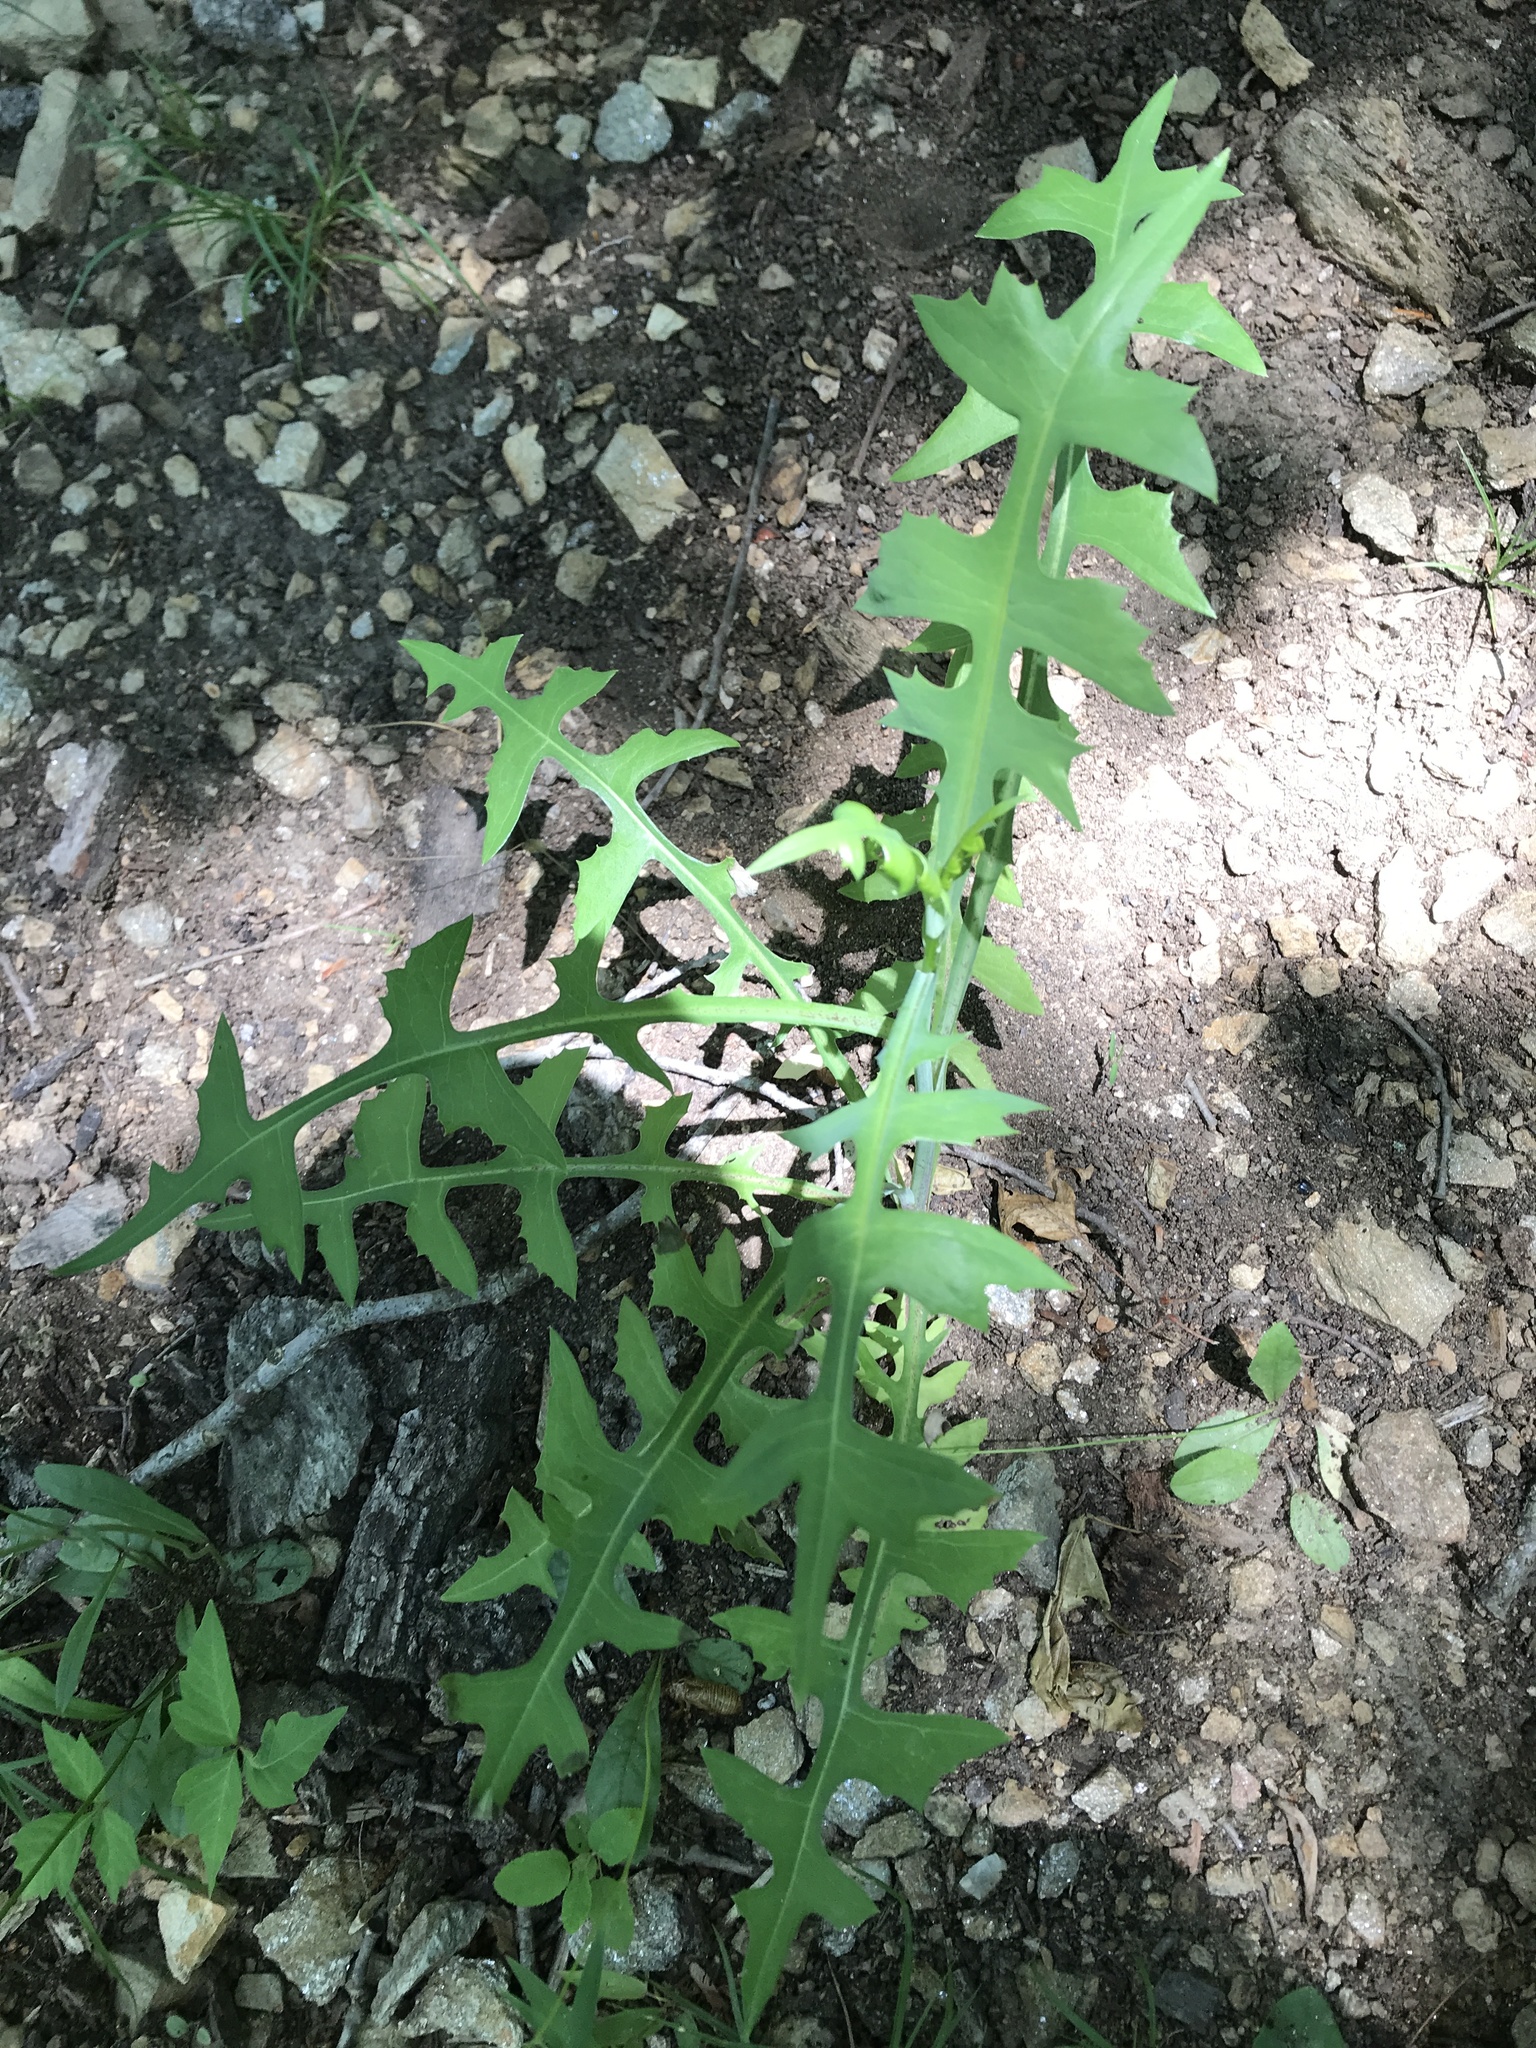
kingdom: Plantae
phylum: Tracheophyta
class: Magnoliopsida
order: Asterales
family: Asteraceae
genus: Lactuca
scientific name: Lactuca canadensis
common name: Canada lettuce
